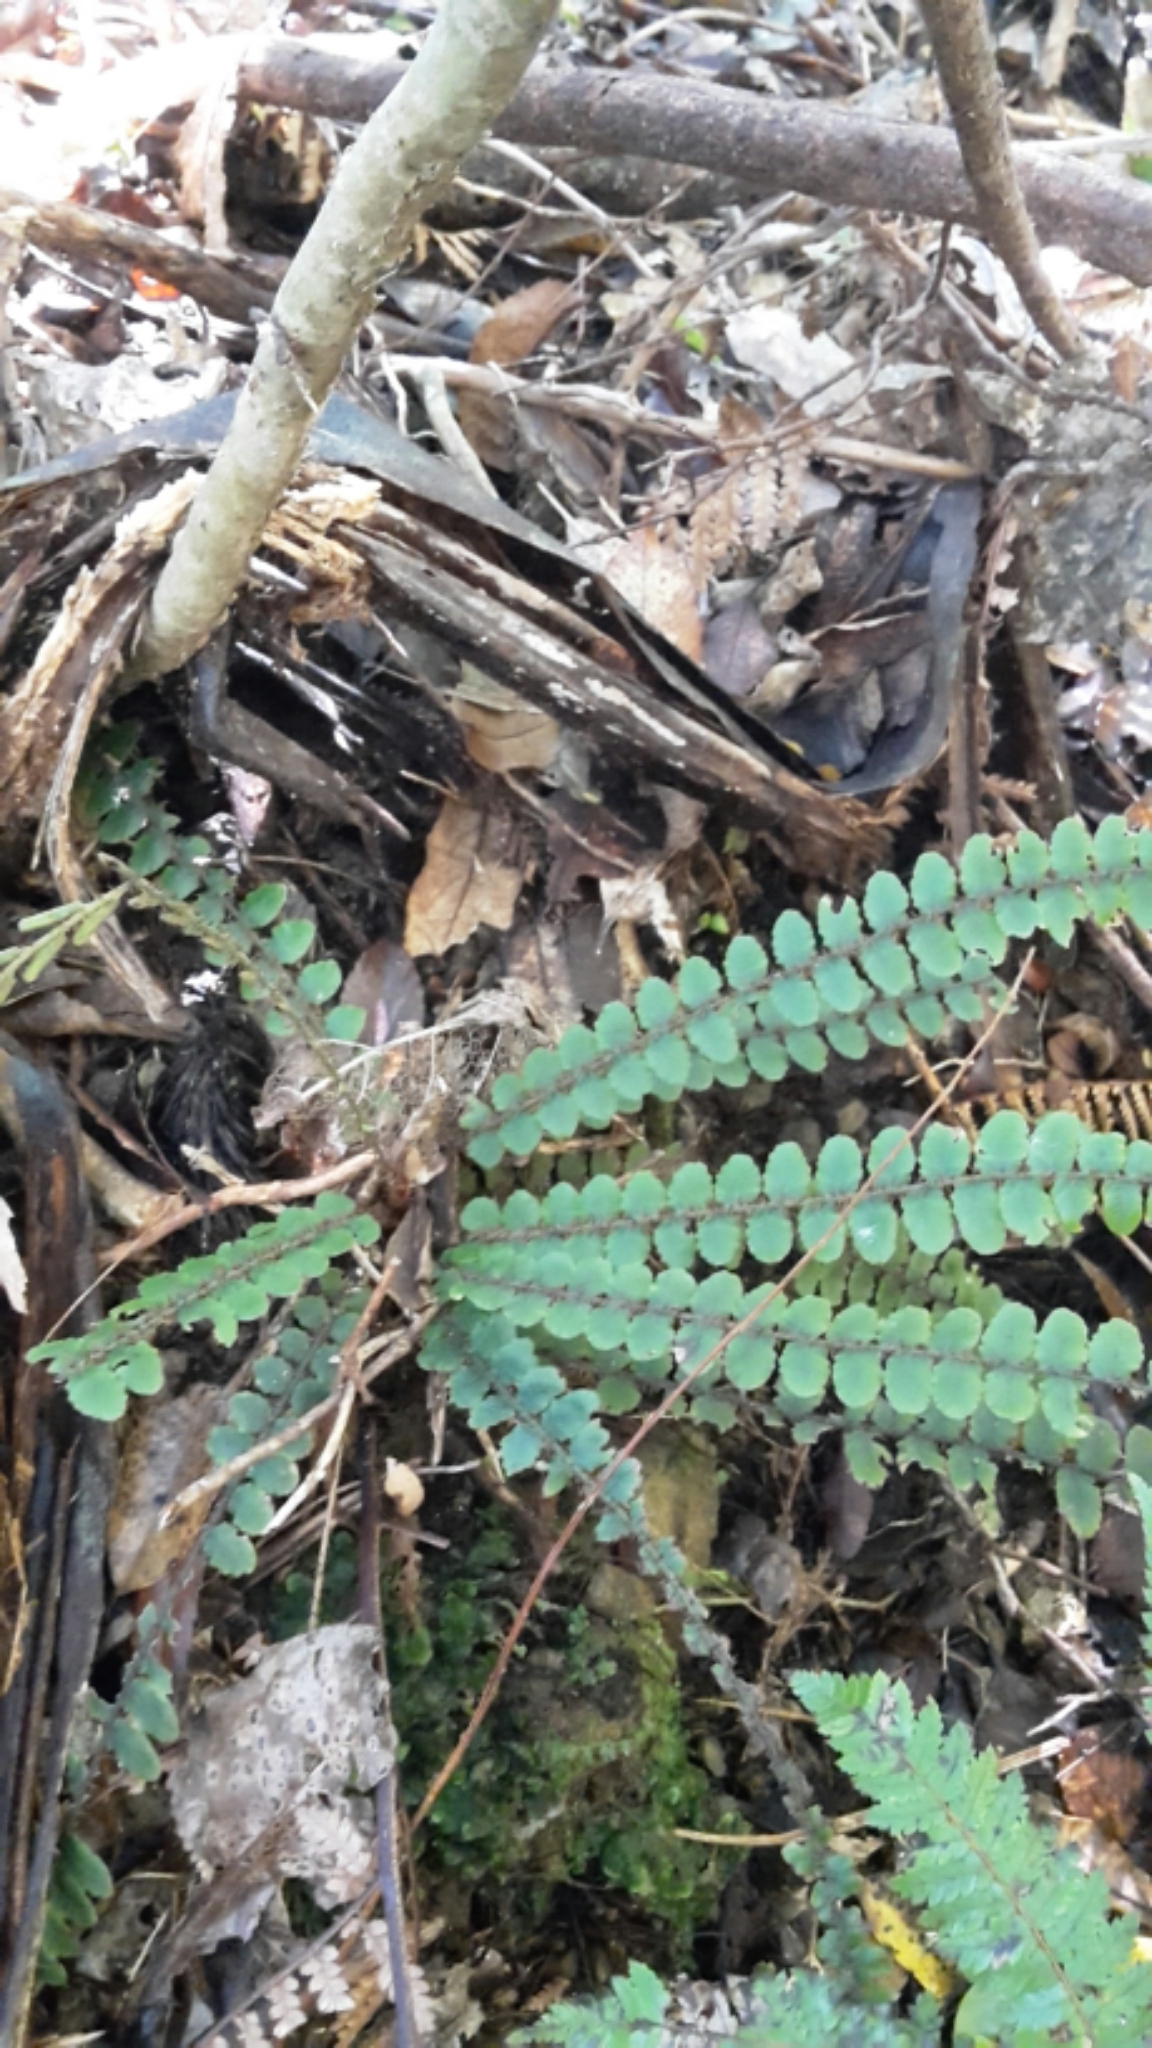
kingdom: Plantae
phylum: Tracheophyta
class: Polypodiopsida
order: Polypodiales
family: Blechnaceae
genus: Cranfillia
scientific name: Cranfillia fluviatilis
